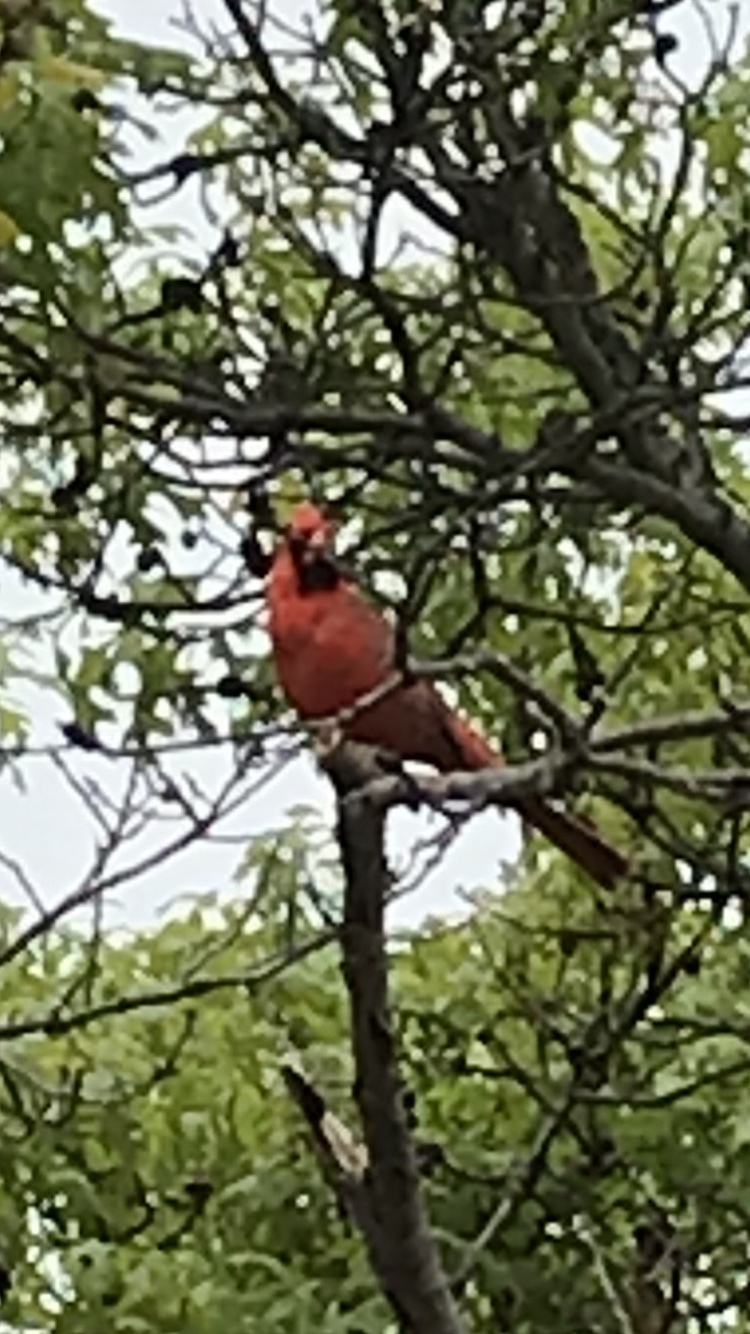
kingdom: Animalia
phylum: Chordata
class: Aves
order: Passeriformes
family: Cardinalidae
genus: Cardinalis
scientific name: Cardinalis cardinalis
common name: Northern cardinal
